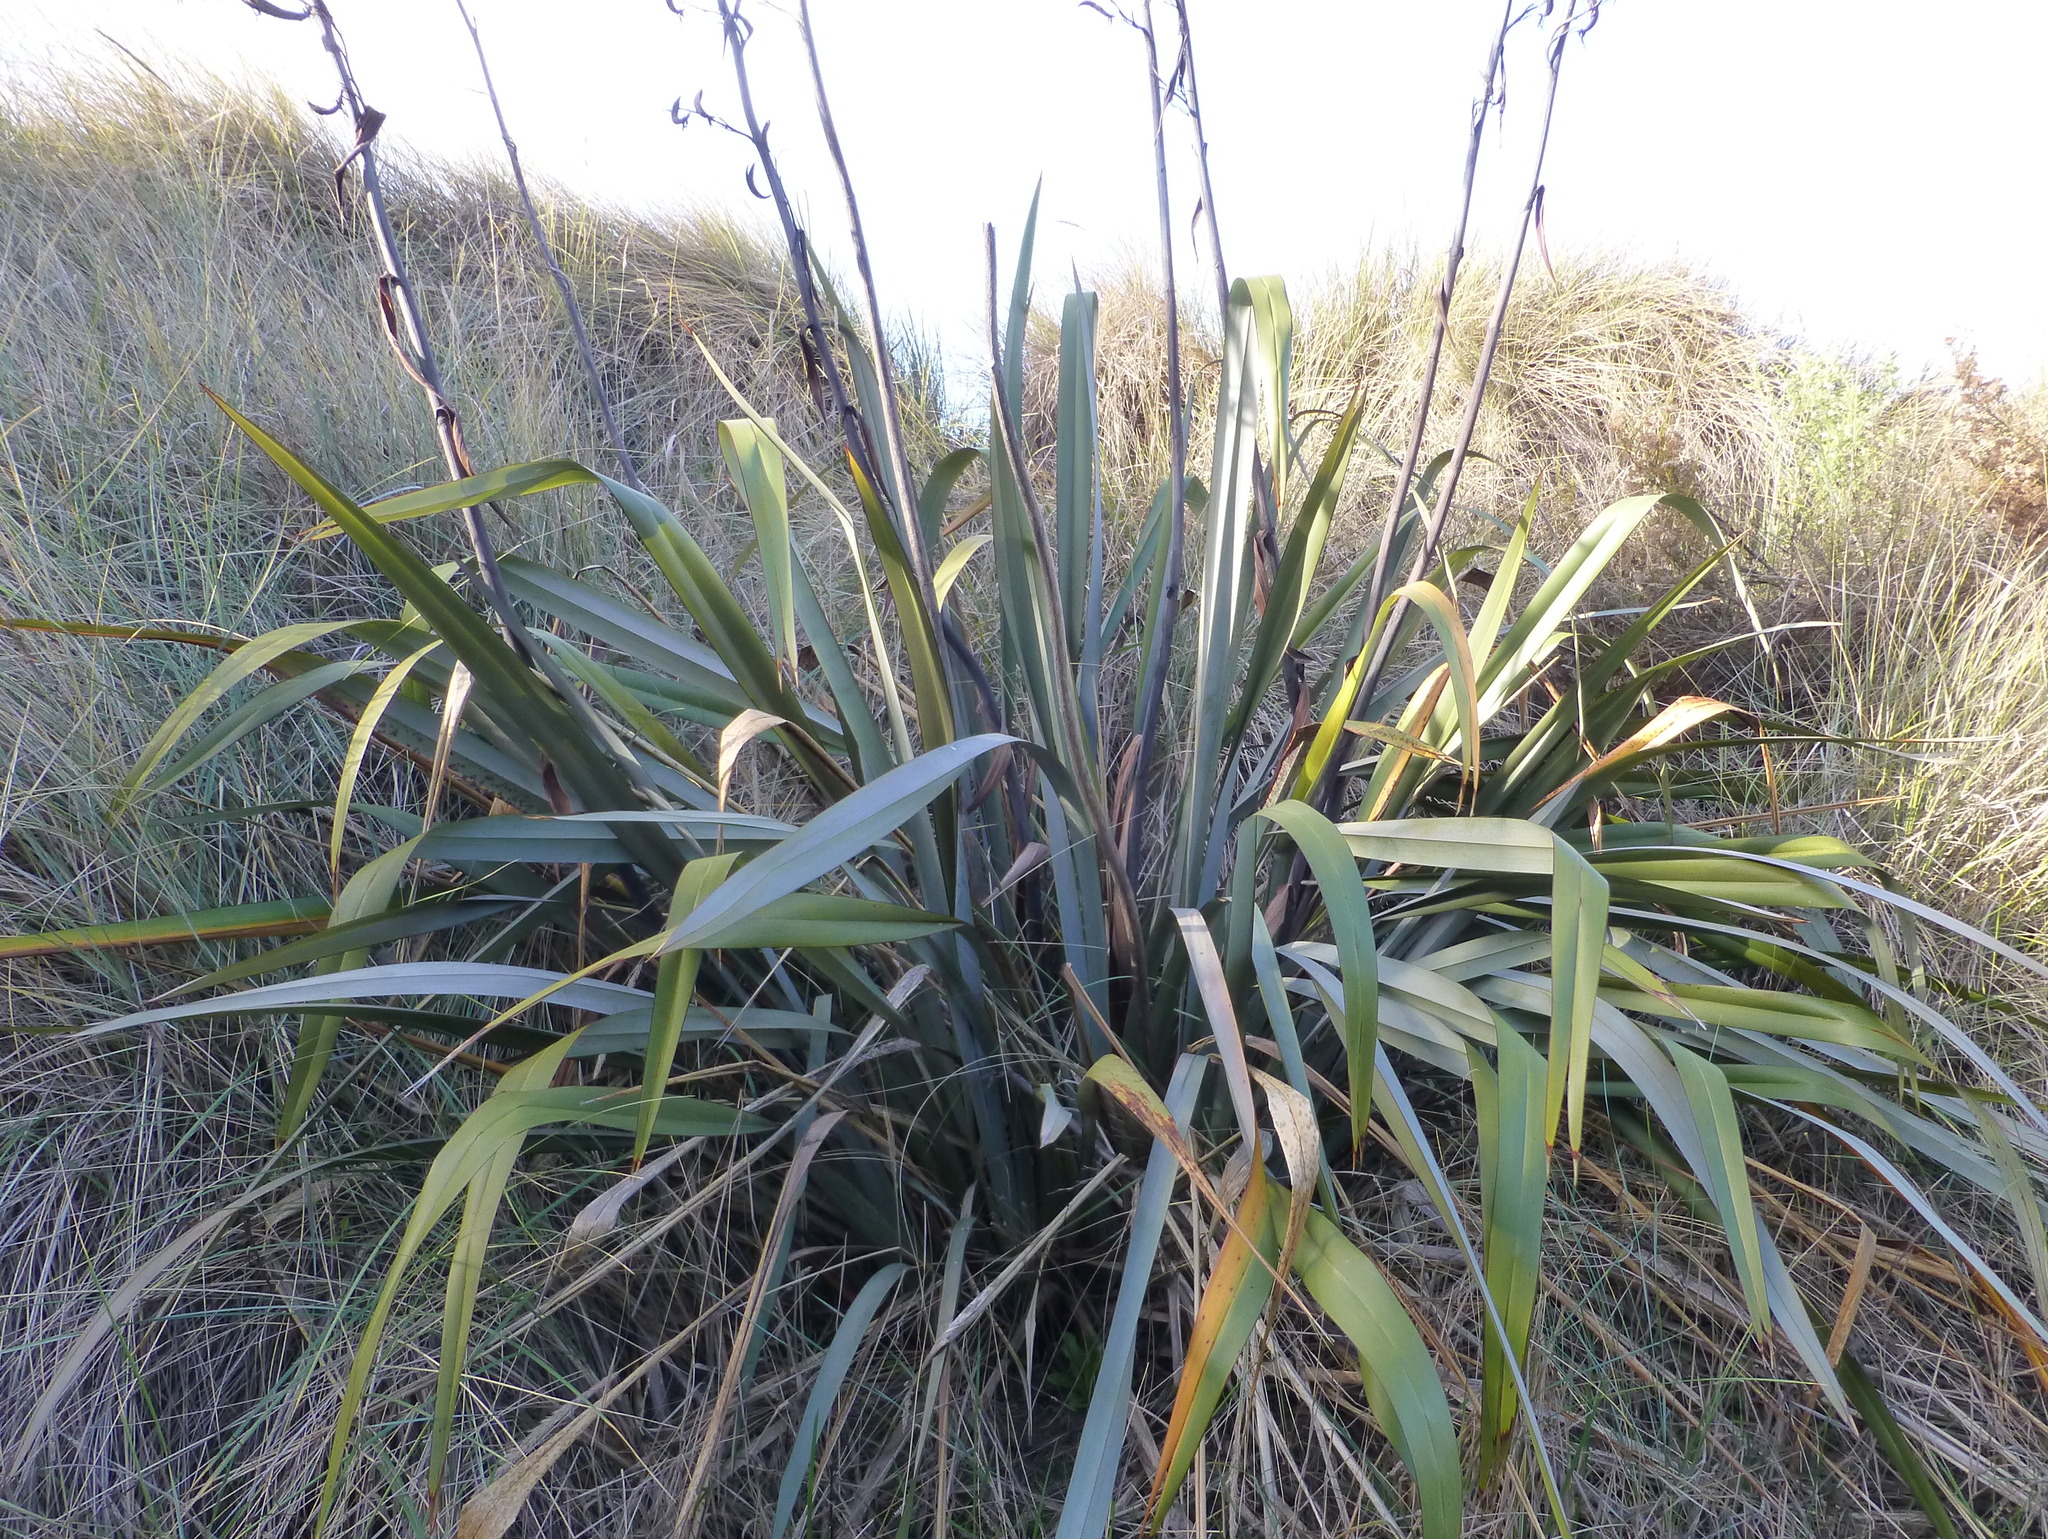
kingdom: Plantae
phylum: Tracheophyta
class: Liliopsida
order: Asparagales
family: Asphodelaceae
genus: Phormium
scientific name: Phormium tenax
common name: New zealand flax
